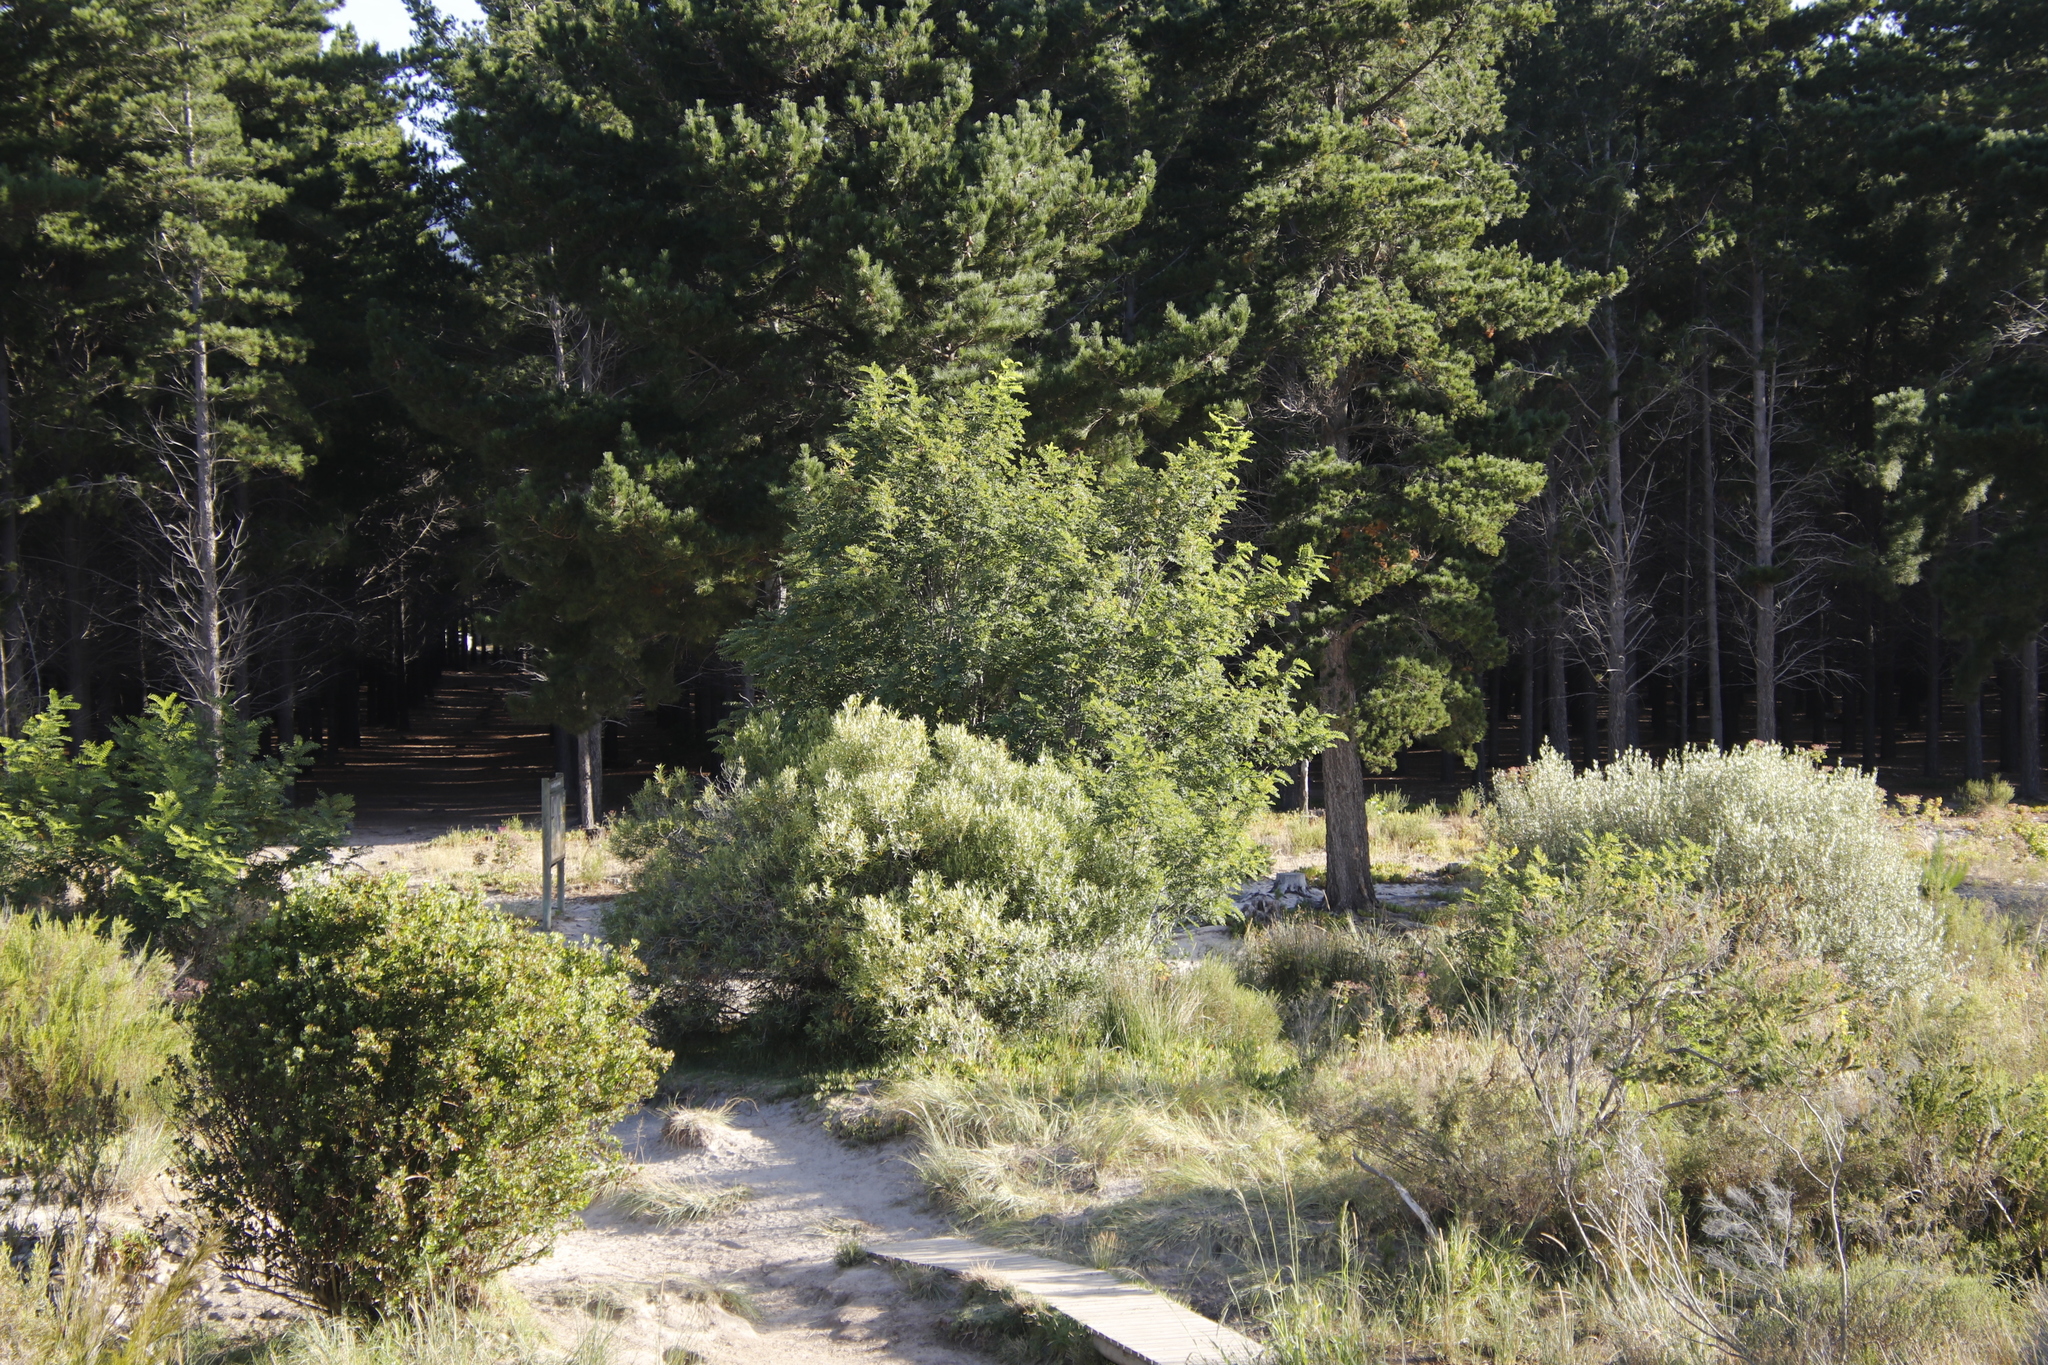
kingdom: Plantae
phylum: Tracheophyta
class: Magnoliopsida
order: Fabales
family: Fabaceae
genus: Robinia
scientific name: Robinia pseudoacacia
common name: Black locust
